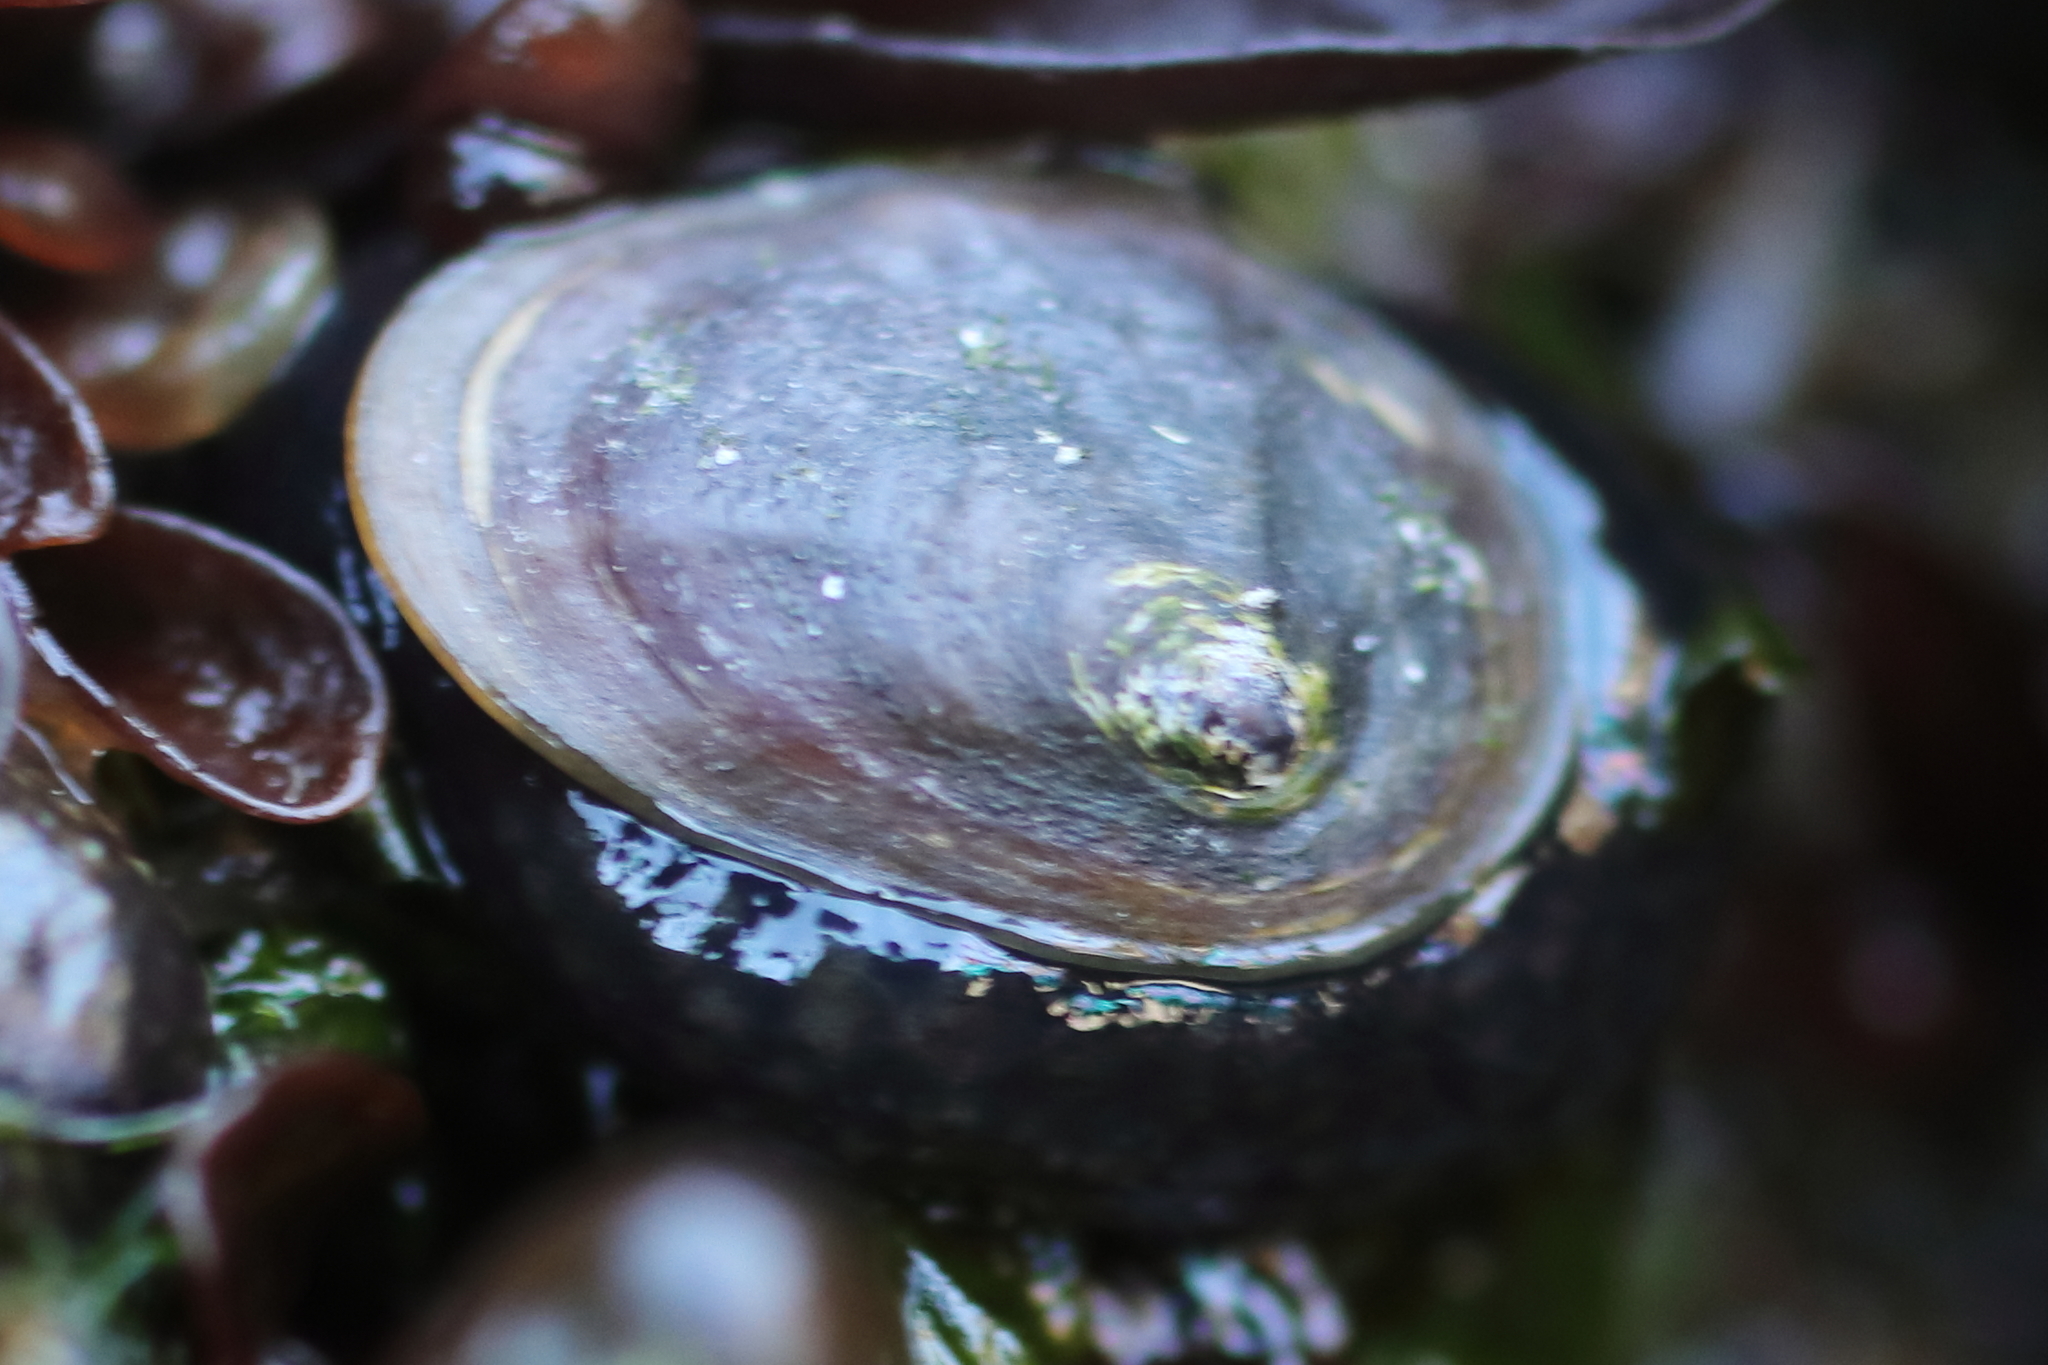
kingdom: Animalia
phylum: Mollusca
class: Gastropoda
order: Siphonariida
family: Siphonariidae
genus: Siphonaria
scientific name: Siphonaria thersites
